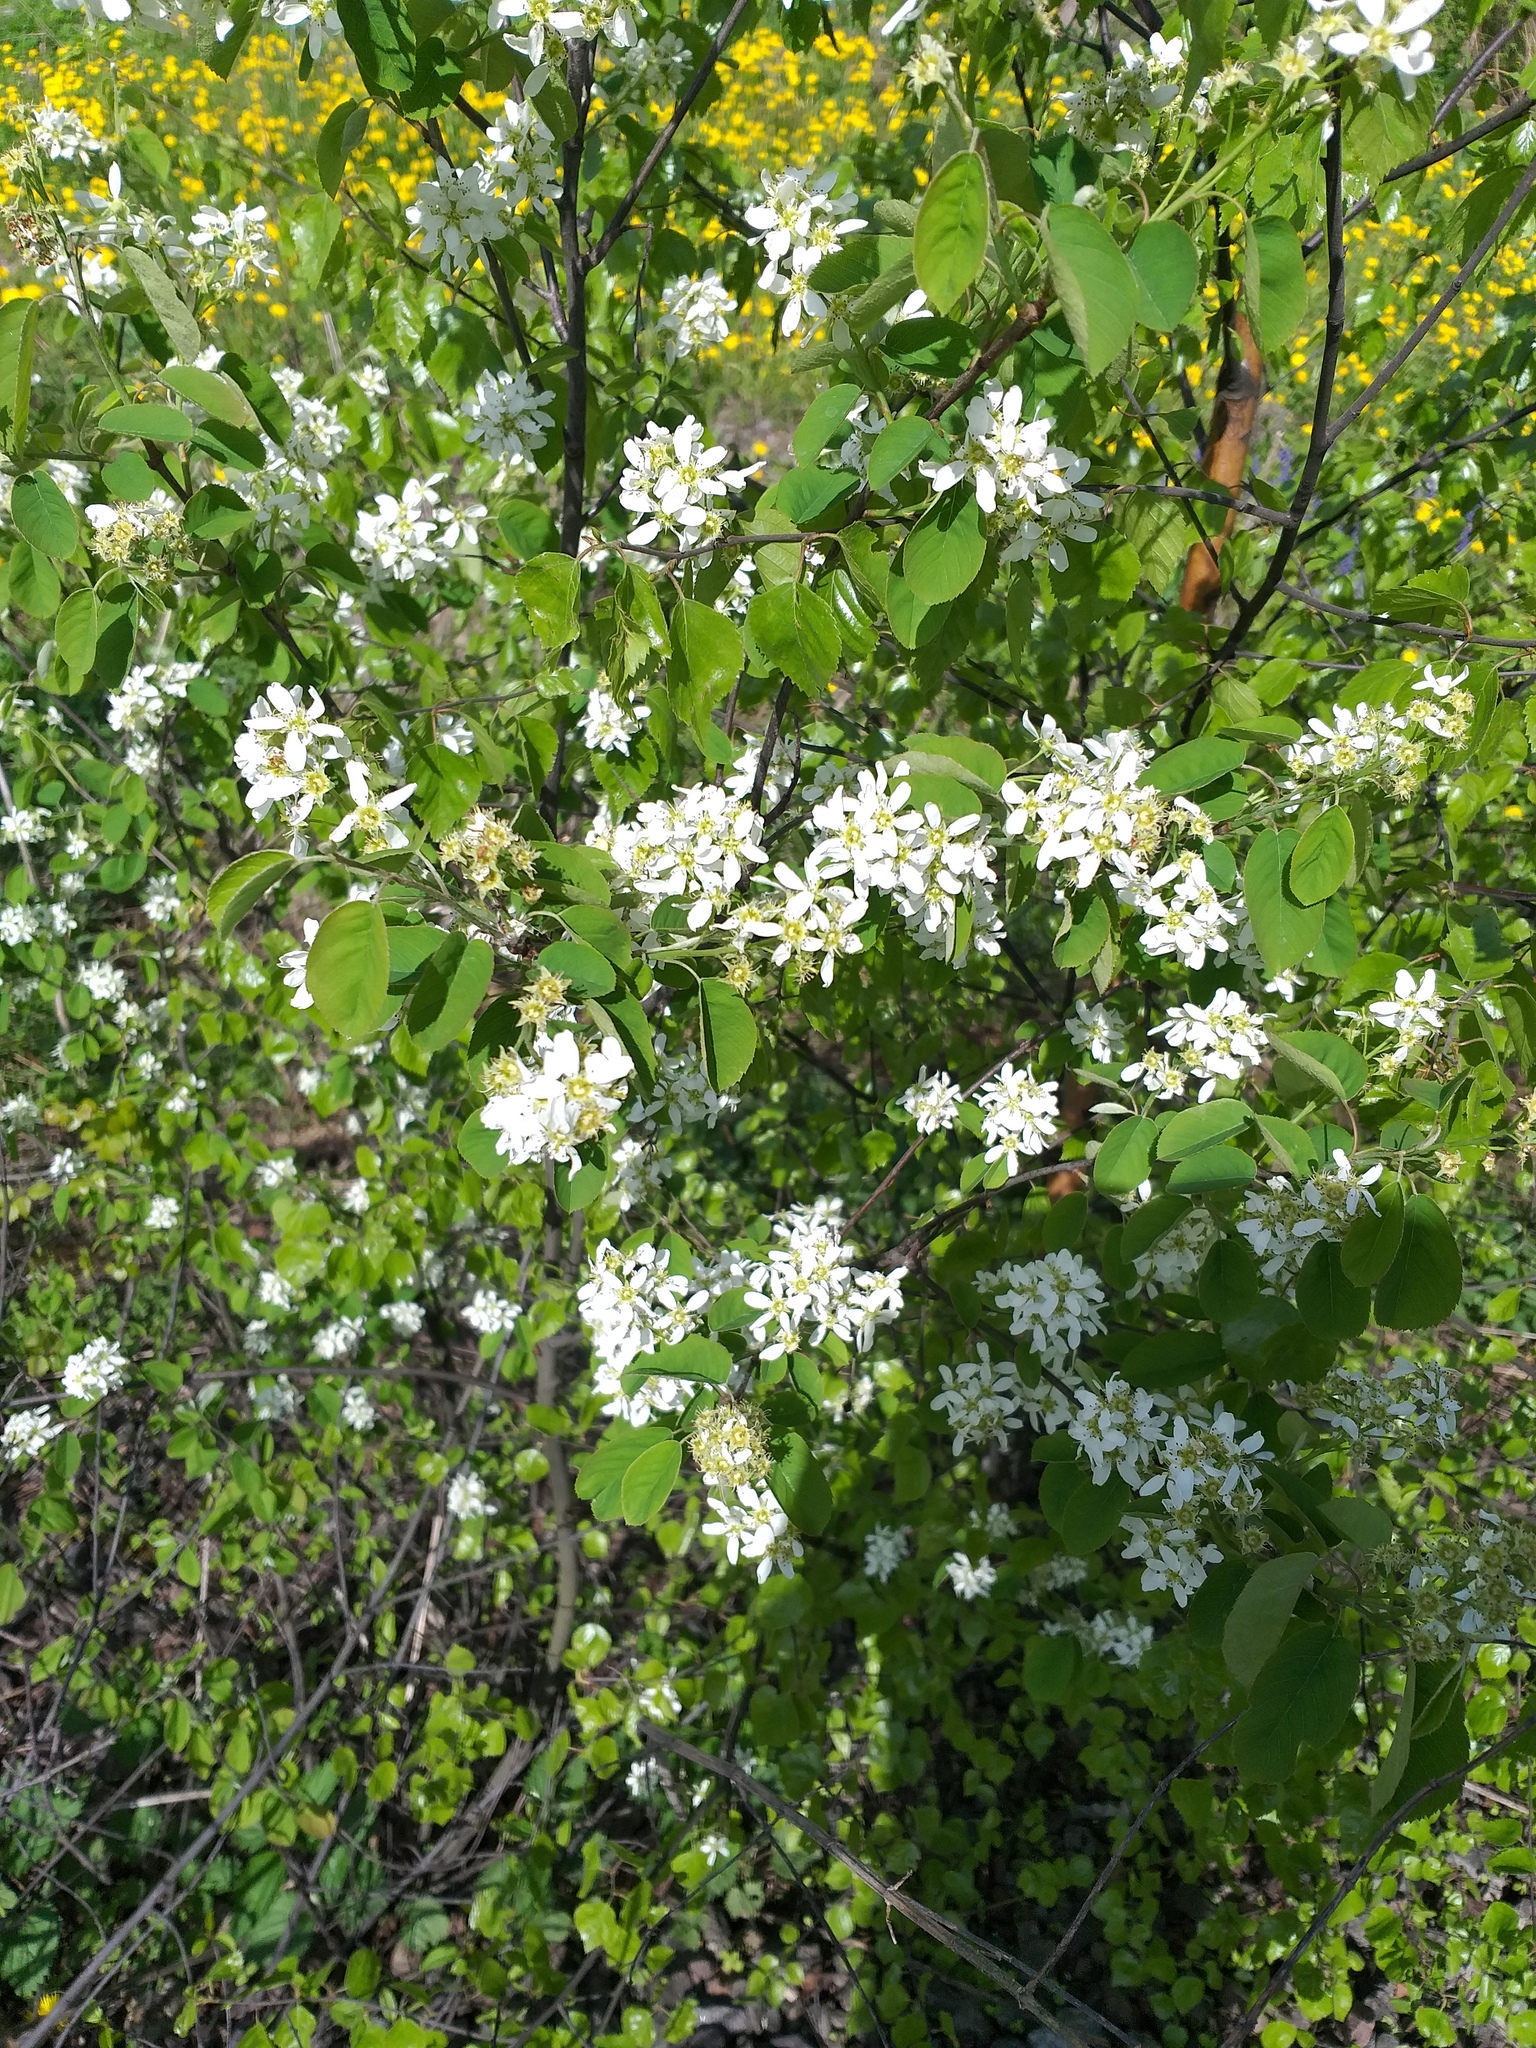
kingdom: Plantae
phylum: Tracheophyta
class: Magnoliopsida
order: Rosales
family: Rosaceae
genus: Amelanchier
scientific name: Amelanchier
